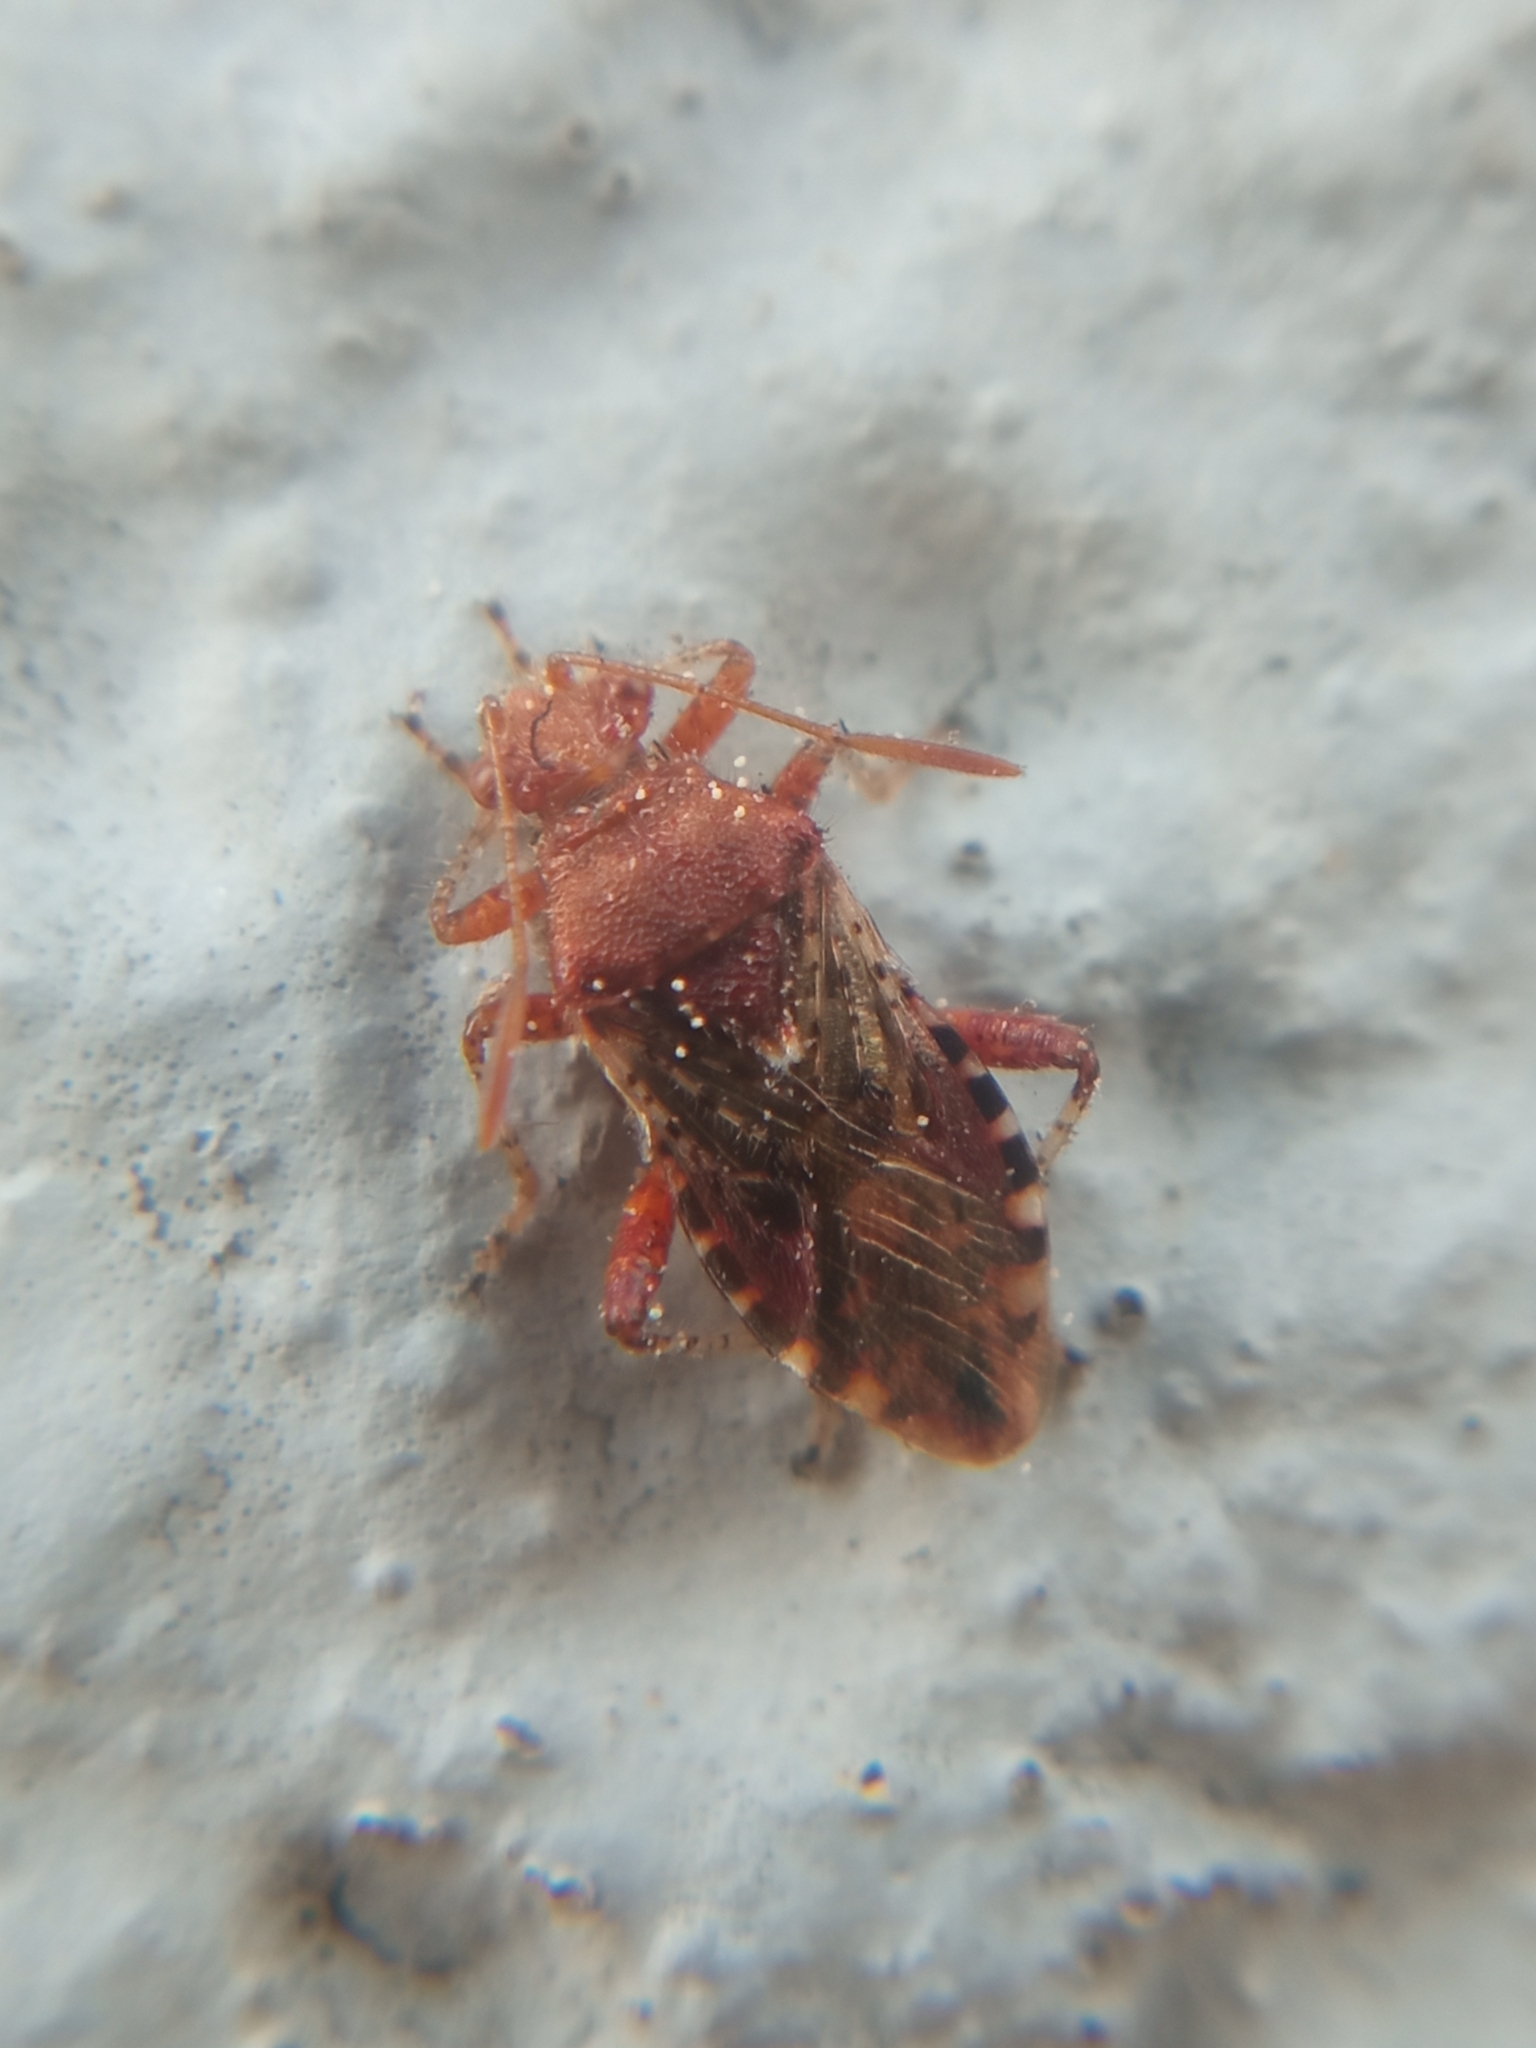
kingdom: Animalia
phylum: Arthropoda
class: Insecta
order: Hemiptera
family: Rhopalidae
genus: Rhopalus
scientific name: Rhopalus subrufus
